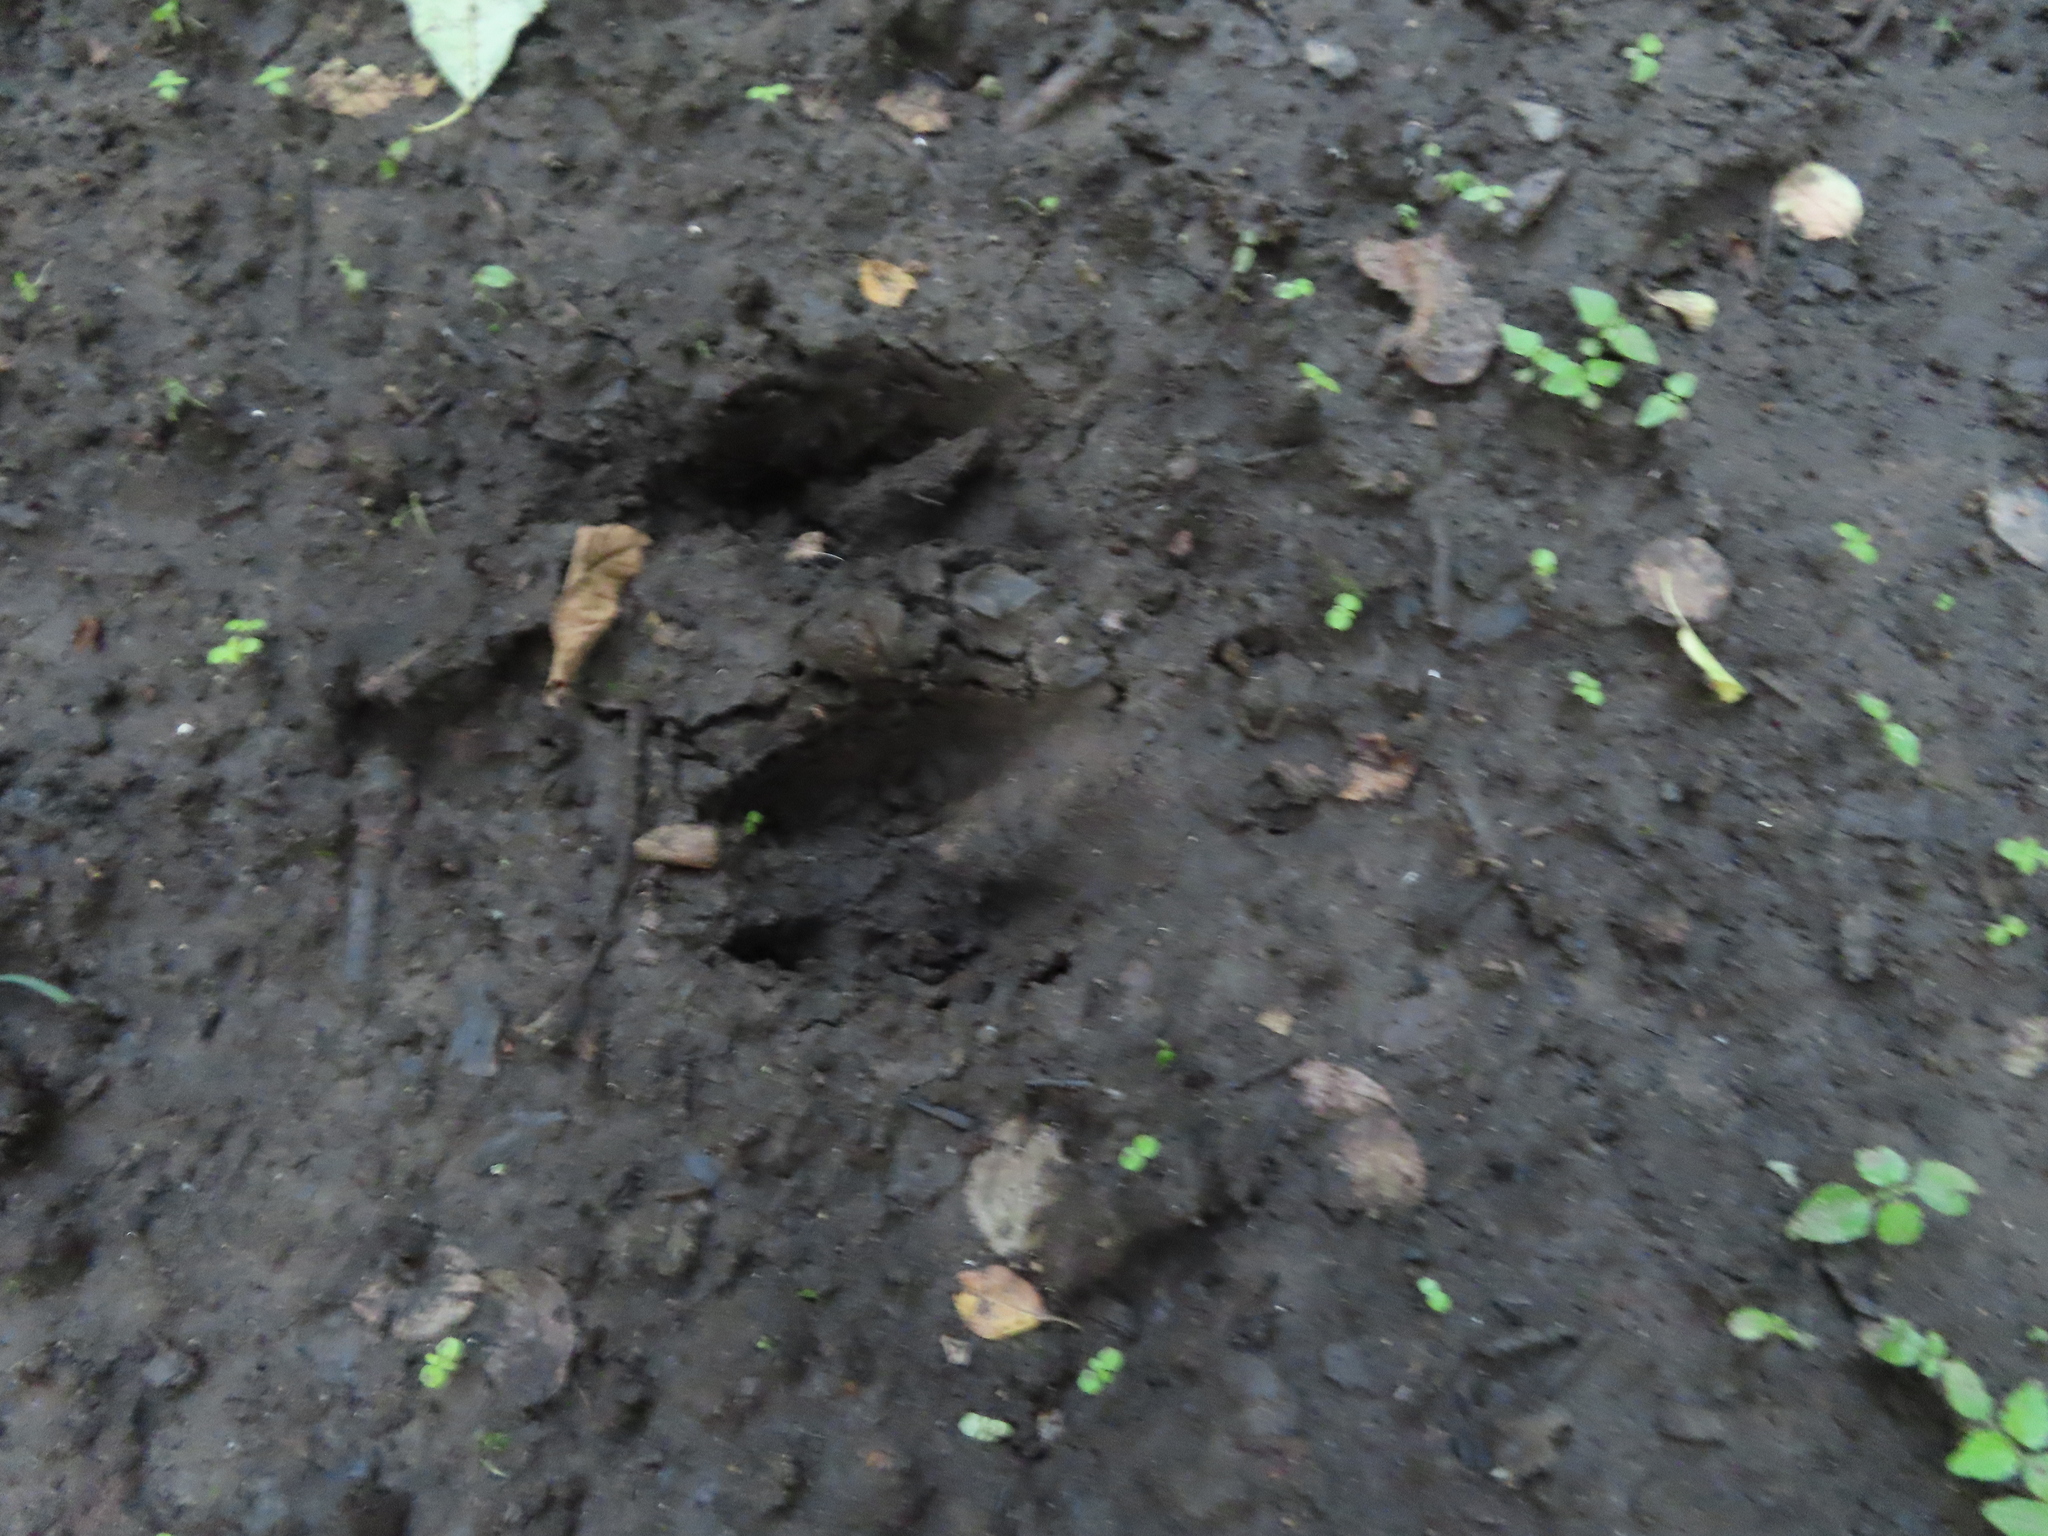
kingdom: Animalia
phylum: Chordata
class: Mammalia
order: Artiodactyla
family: Cervidae
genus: Odocoileus
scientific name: Odocoileus virginianus
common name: White-tailed deer
